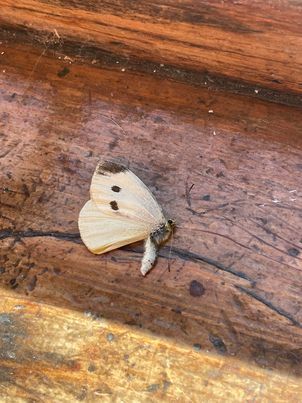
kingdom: Animalia
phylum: Arthropoda
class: Insecta
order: Lepidoptera
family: Pieridae
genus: Pieris
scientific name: Pieris rapae
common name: Small white
